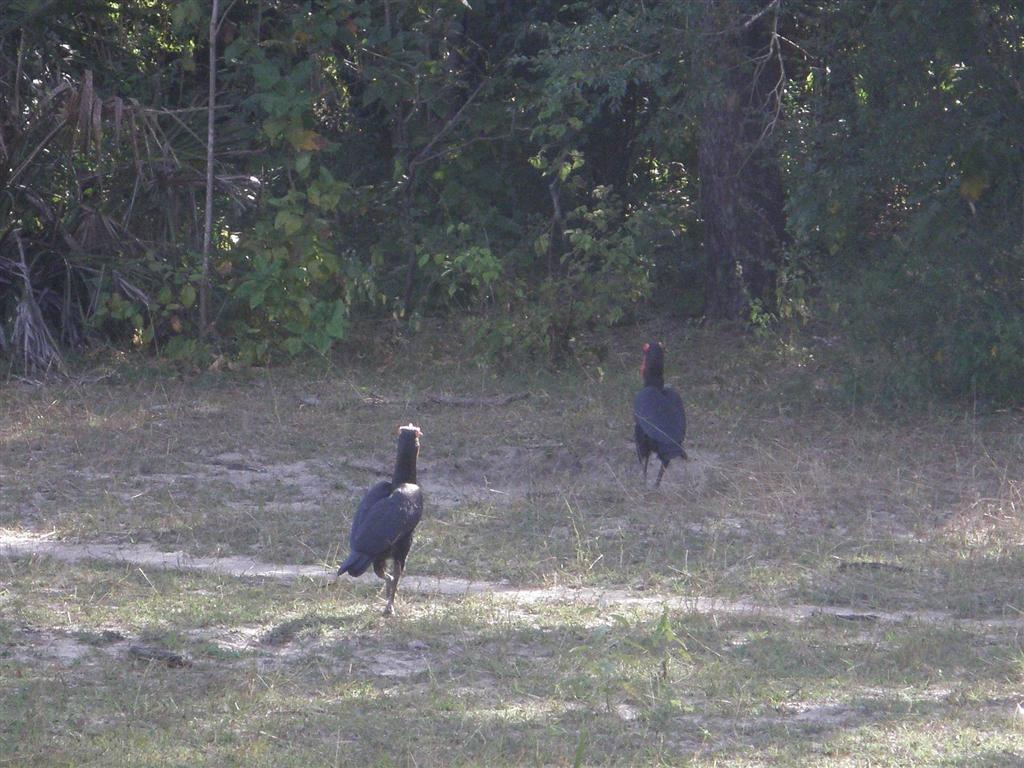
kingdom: Animalia
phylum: Chordata
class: Aves
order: Bucerotiformes
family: Bucorvidae
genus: Bucorvus
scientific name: Bucorvus leadbeateri
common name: Southern ground-hornbill
